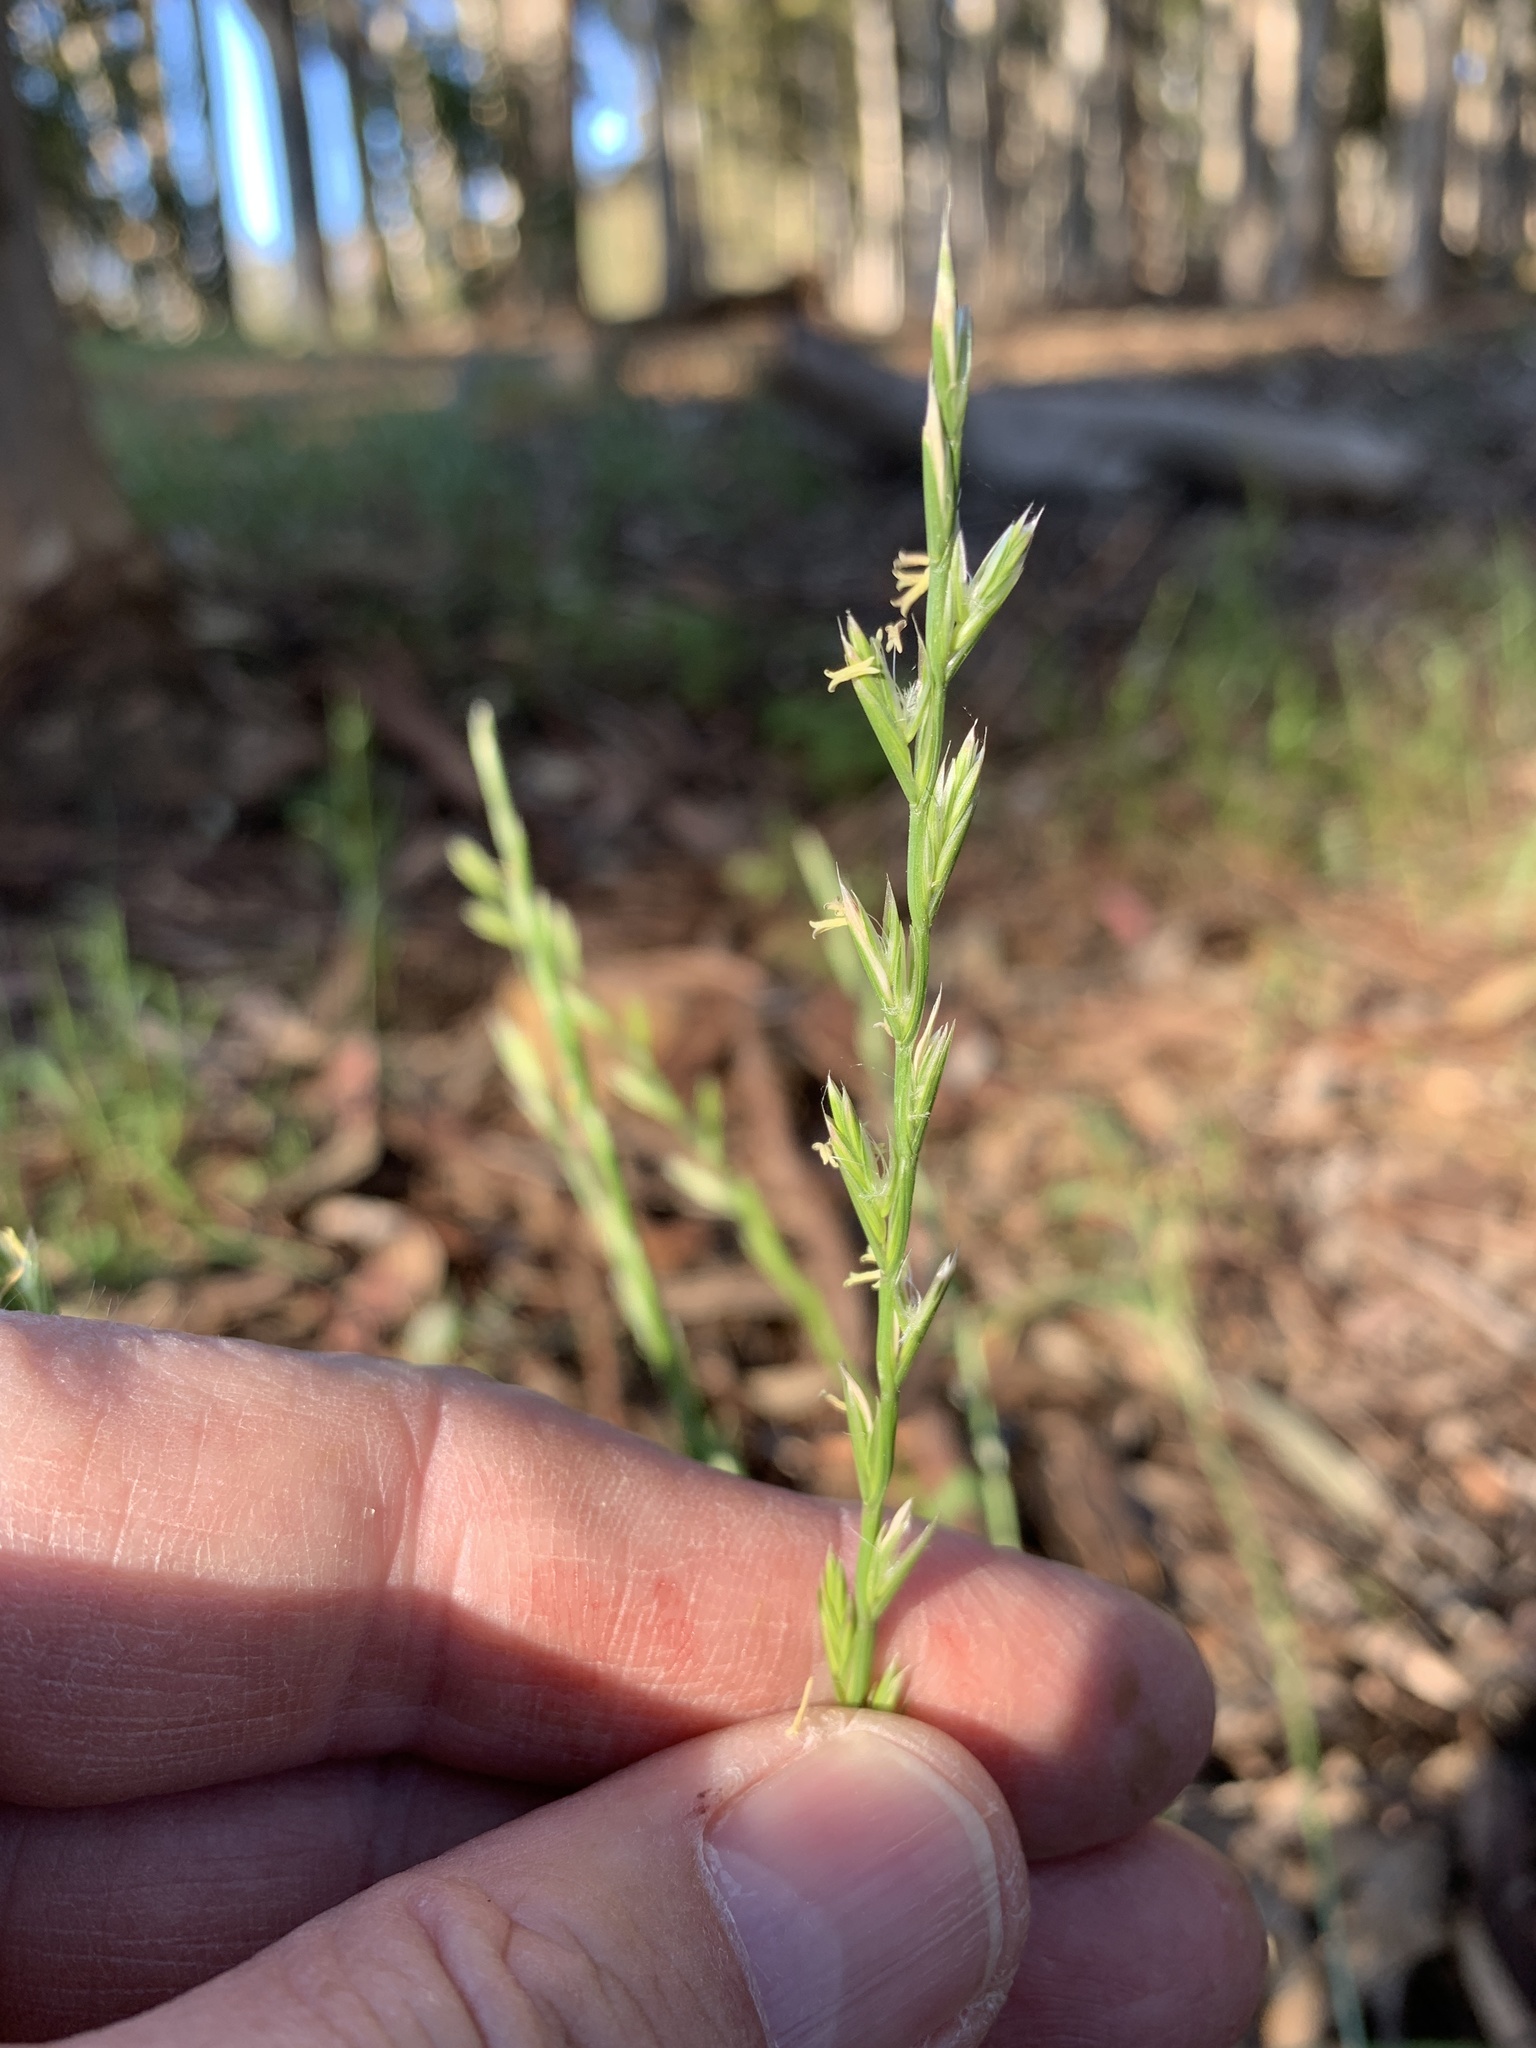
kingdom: Plantae
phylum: Tracheophyta
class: Liliopsida
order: Poales
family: Poaceae
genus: Lolium
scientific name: Lolium perenne
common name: Perennial ryegrass
